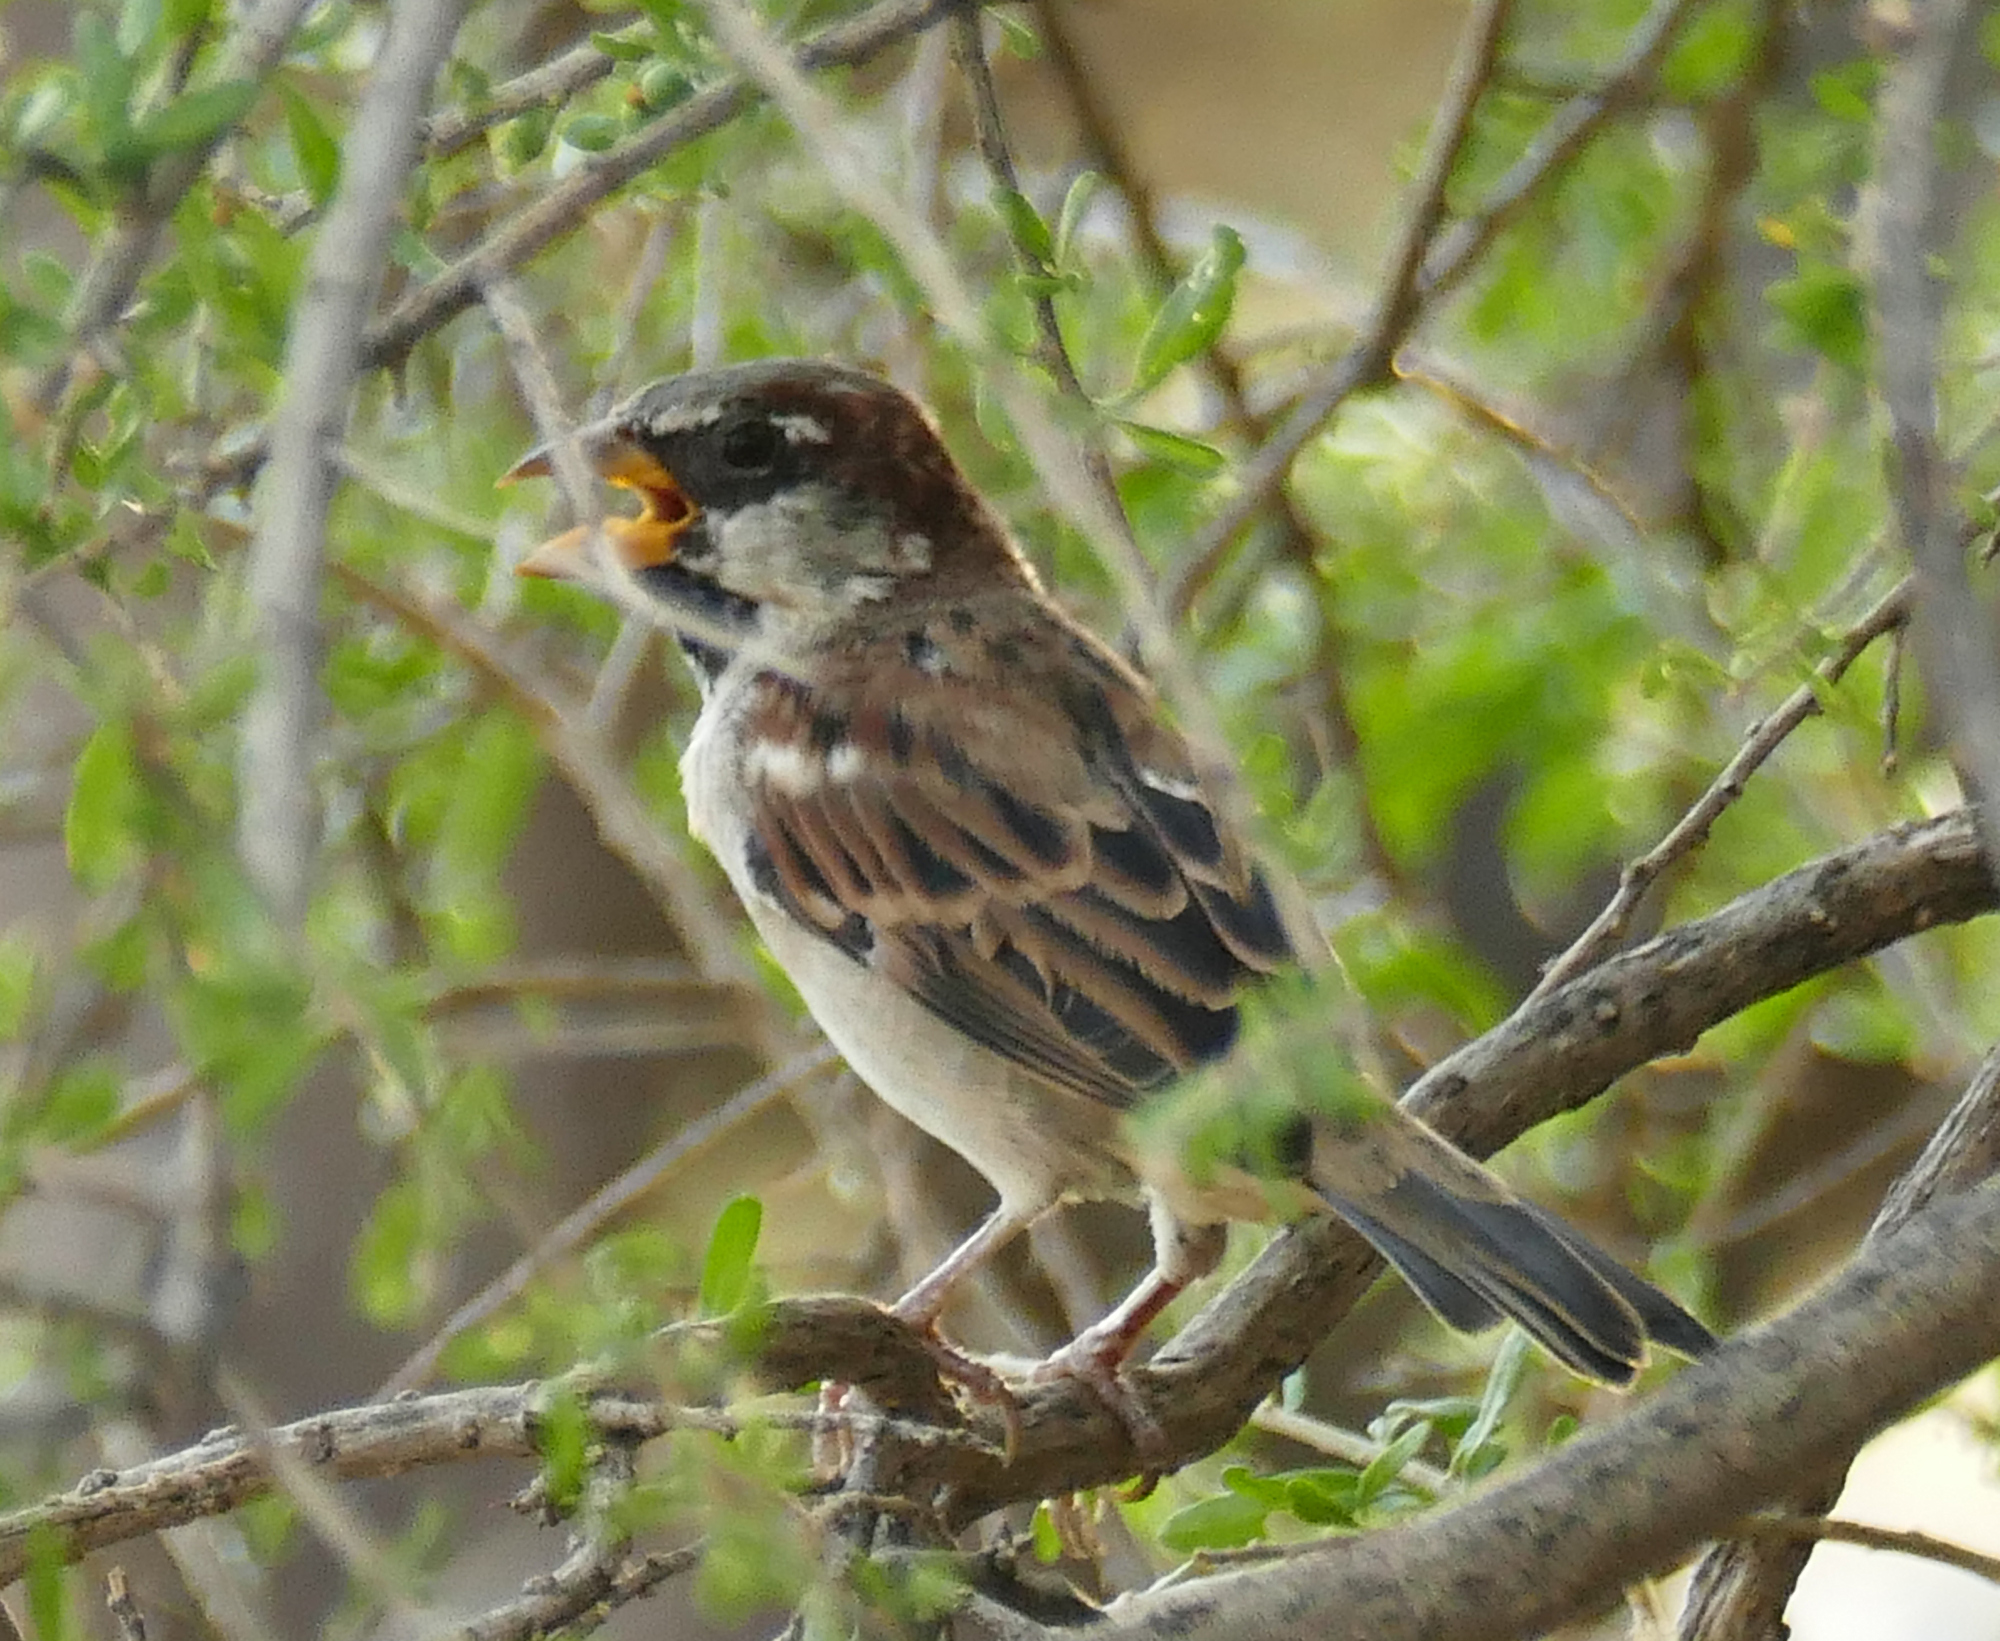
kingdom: Animalia
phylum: Chordata
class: Aves
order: Passeriformes
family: Passeridae
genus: Passer
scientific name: Passer domesticus
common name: House sparrow
